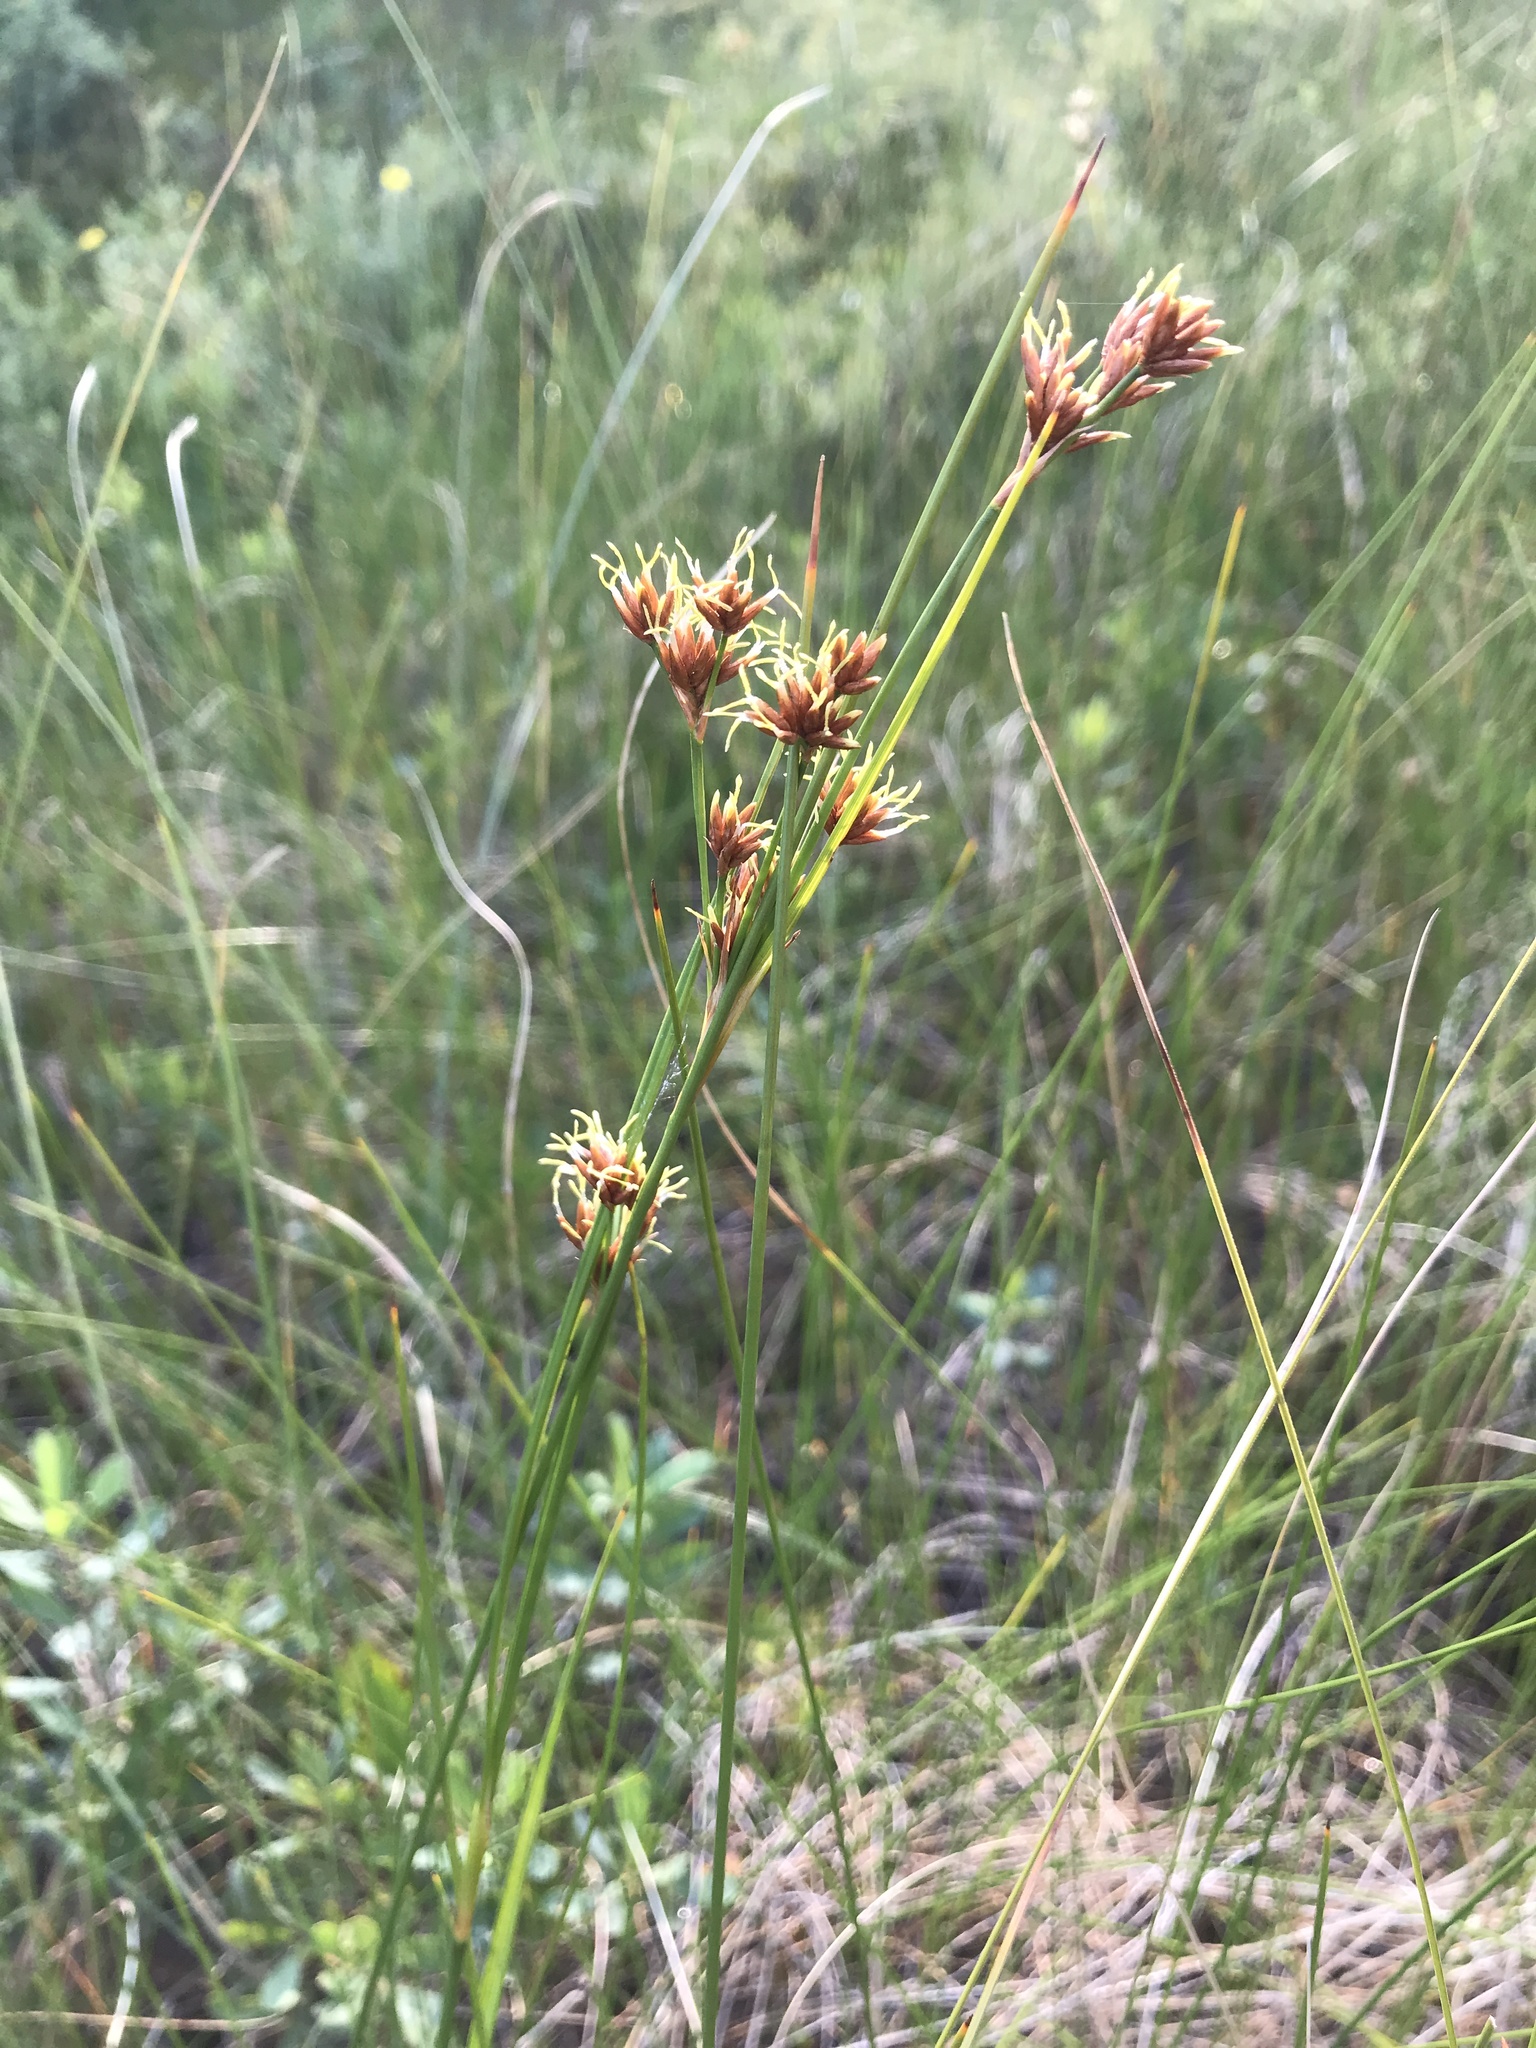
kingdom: Plantae
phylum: Tracheophyta
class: Liliopsida
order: Poales
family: Cyperaceae
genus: Cladium
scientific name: Cladium mariscoides
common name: Smooth sawgrass
